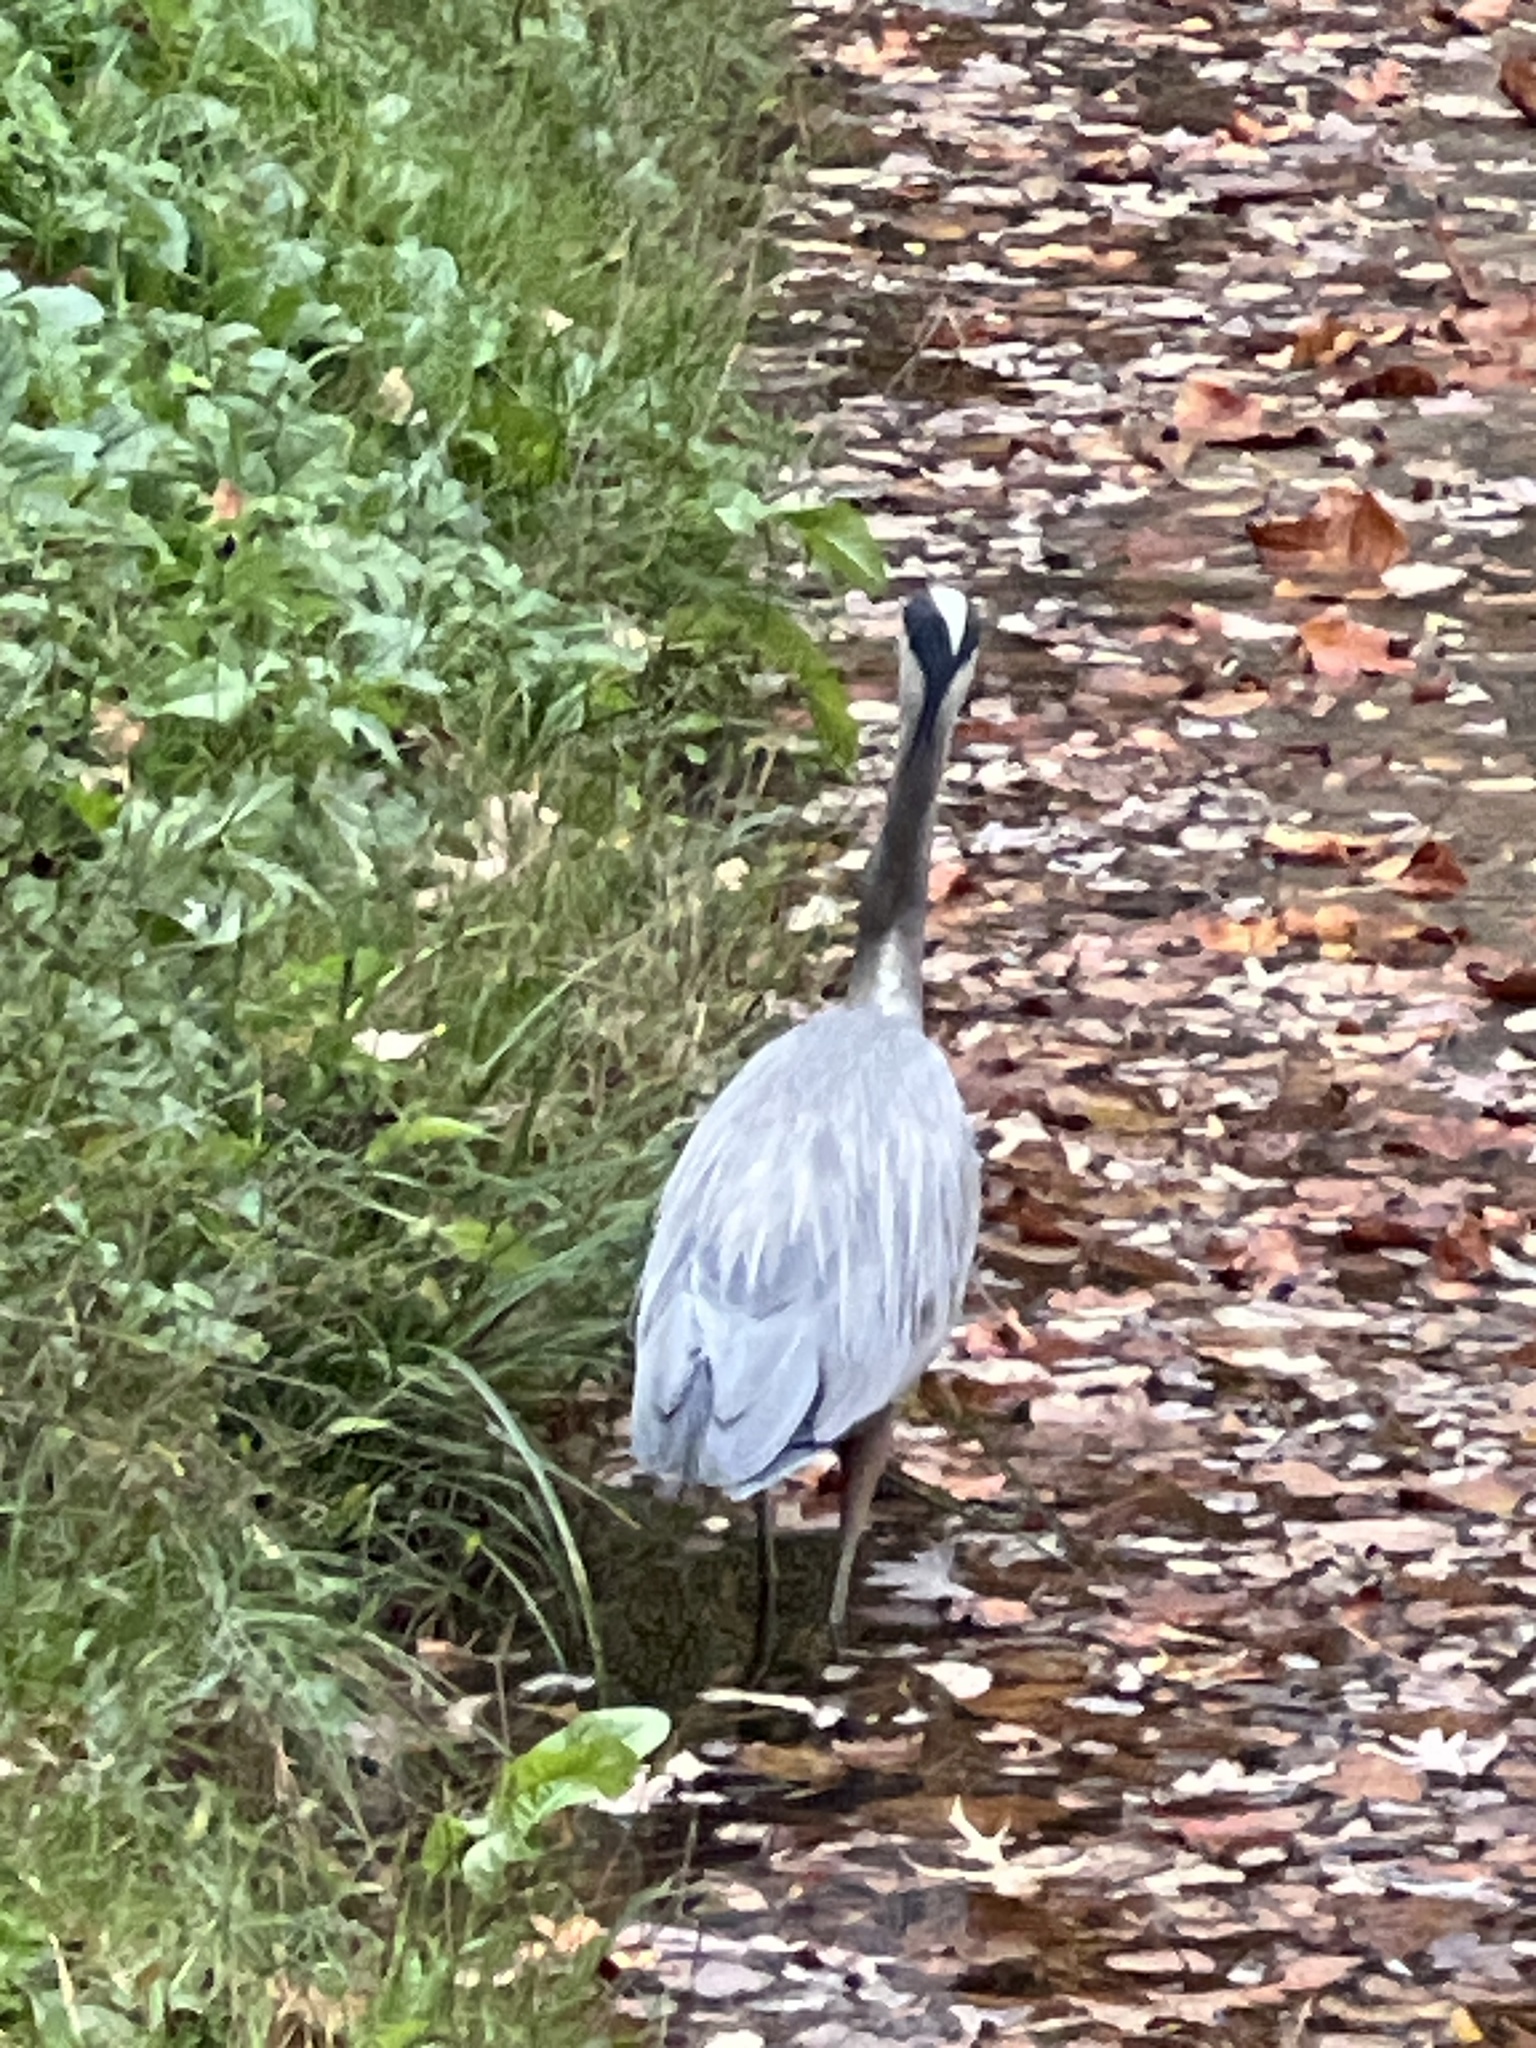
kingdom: Animalia
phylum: Chordata
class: Aves
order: Pelecaniformes
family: Ardeidae
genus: Ardea
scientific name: Ardea herodias
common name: Great blue heron
